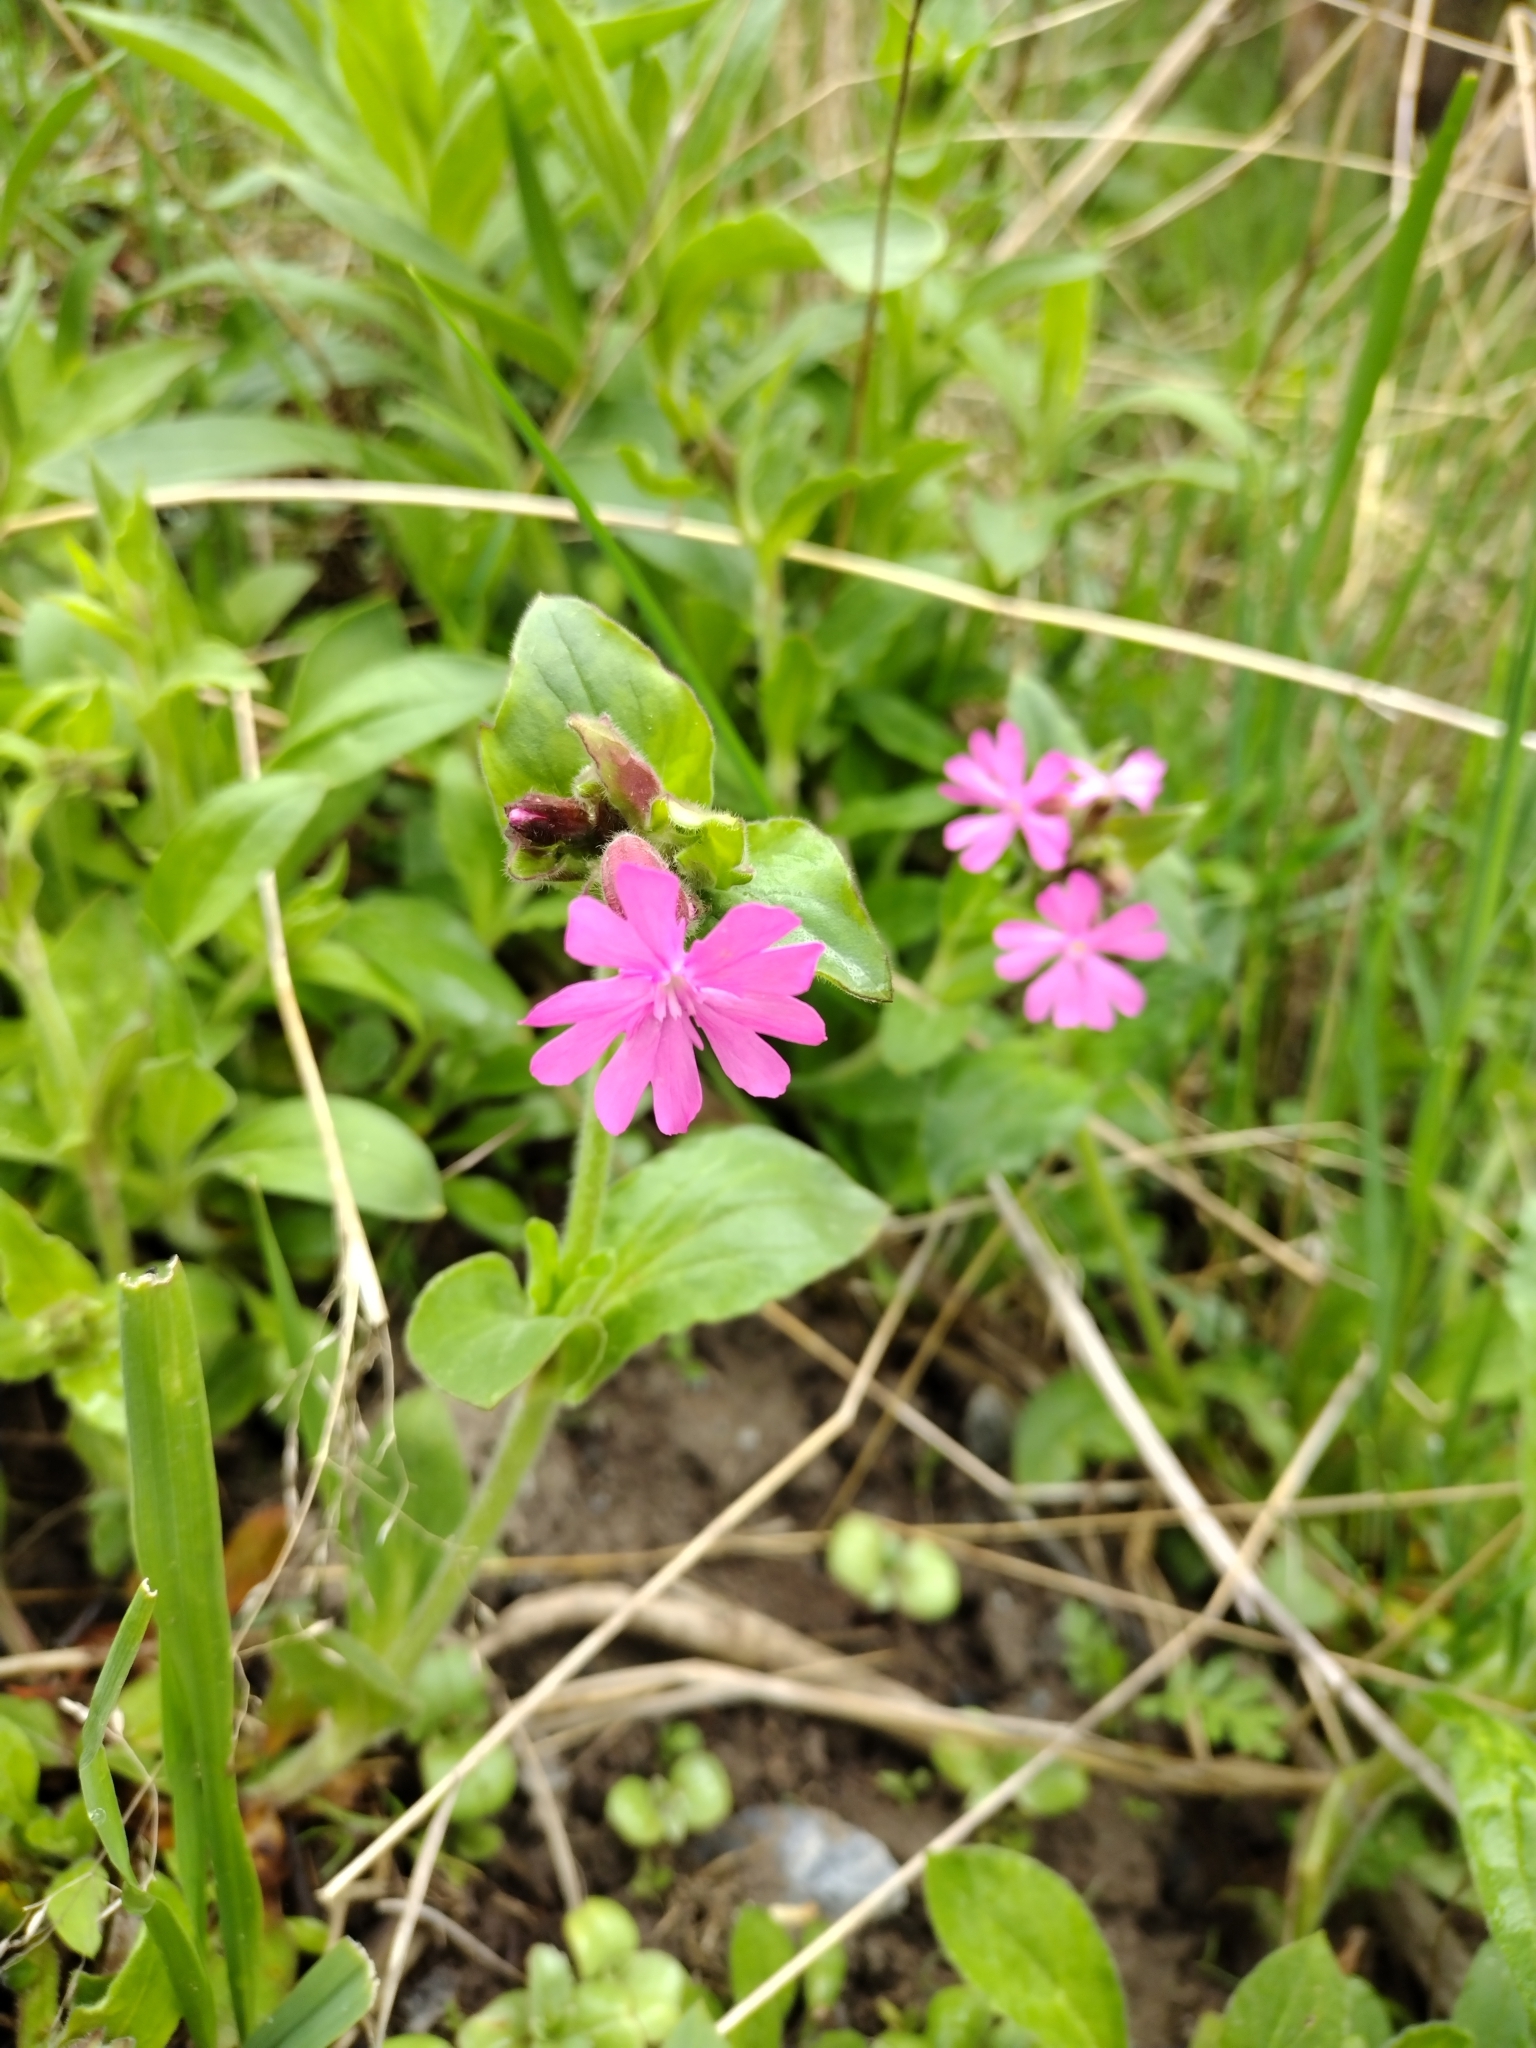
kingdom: Plantae
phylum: Tracheophyta
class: Magnoliopsida
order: Caryophyllales
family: Caryophyllaceae
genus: Silene
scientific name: Silene dioica
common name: Red campion
